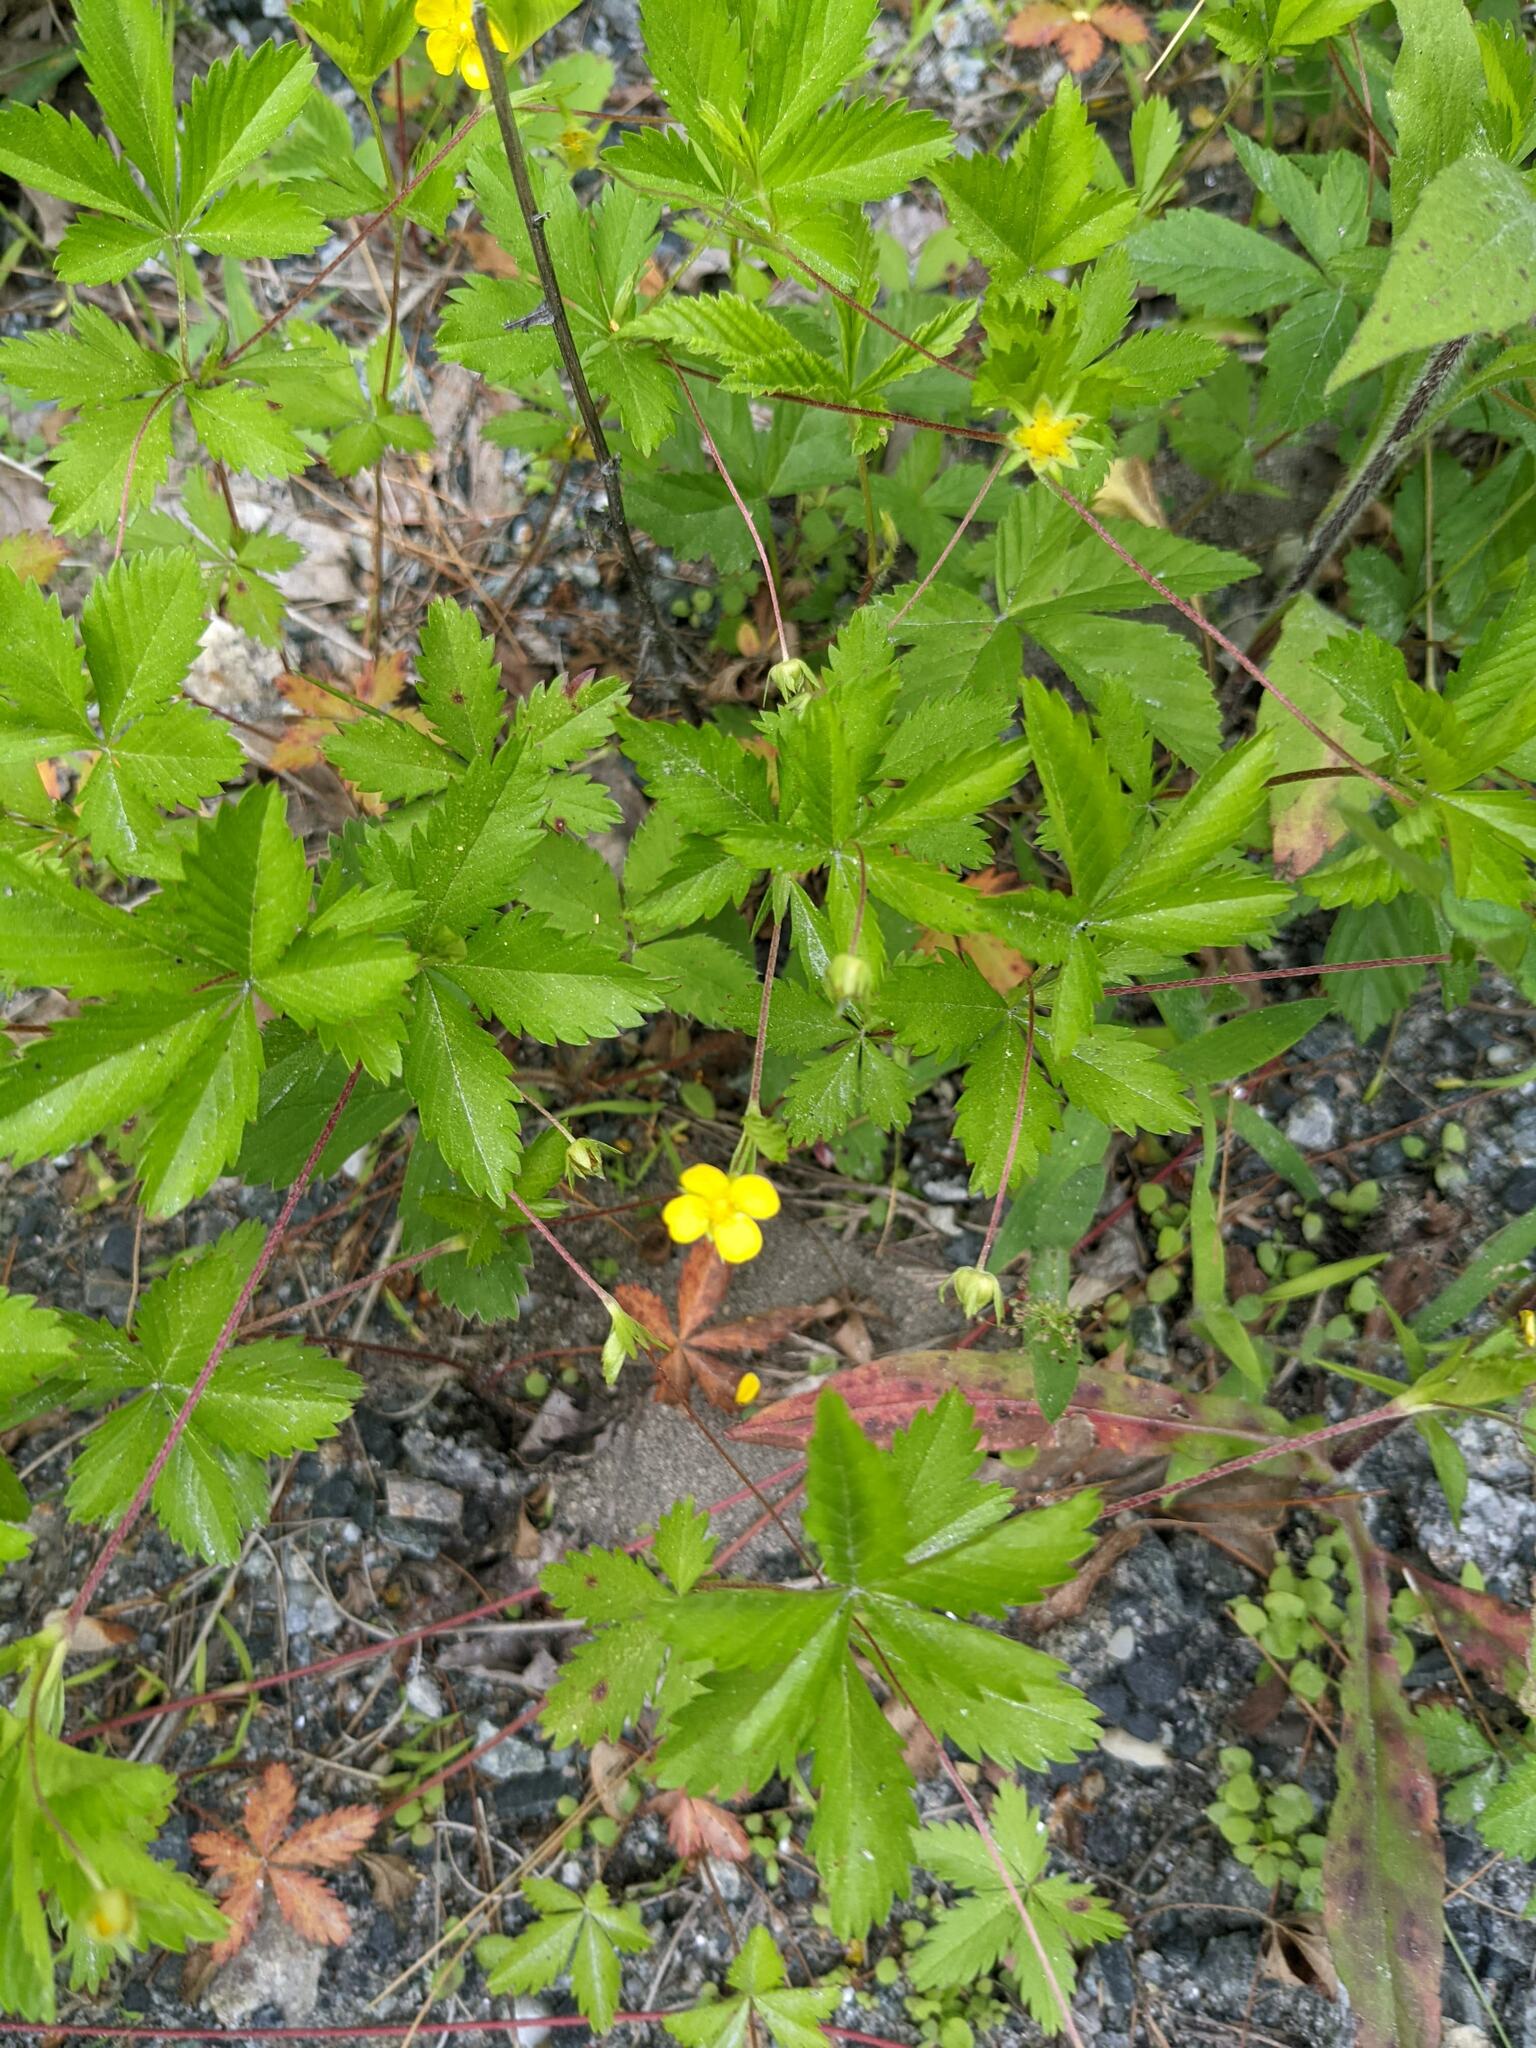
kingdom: Plantae
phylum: Tracheophyta
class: Magnoliopsida
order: Rosales
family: Rosaceae
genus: Potentilla
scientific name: Potentilla simplex
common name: Old field cinquefoil
